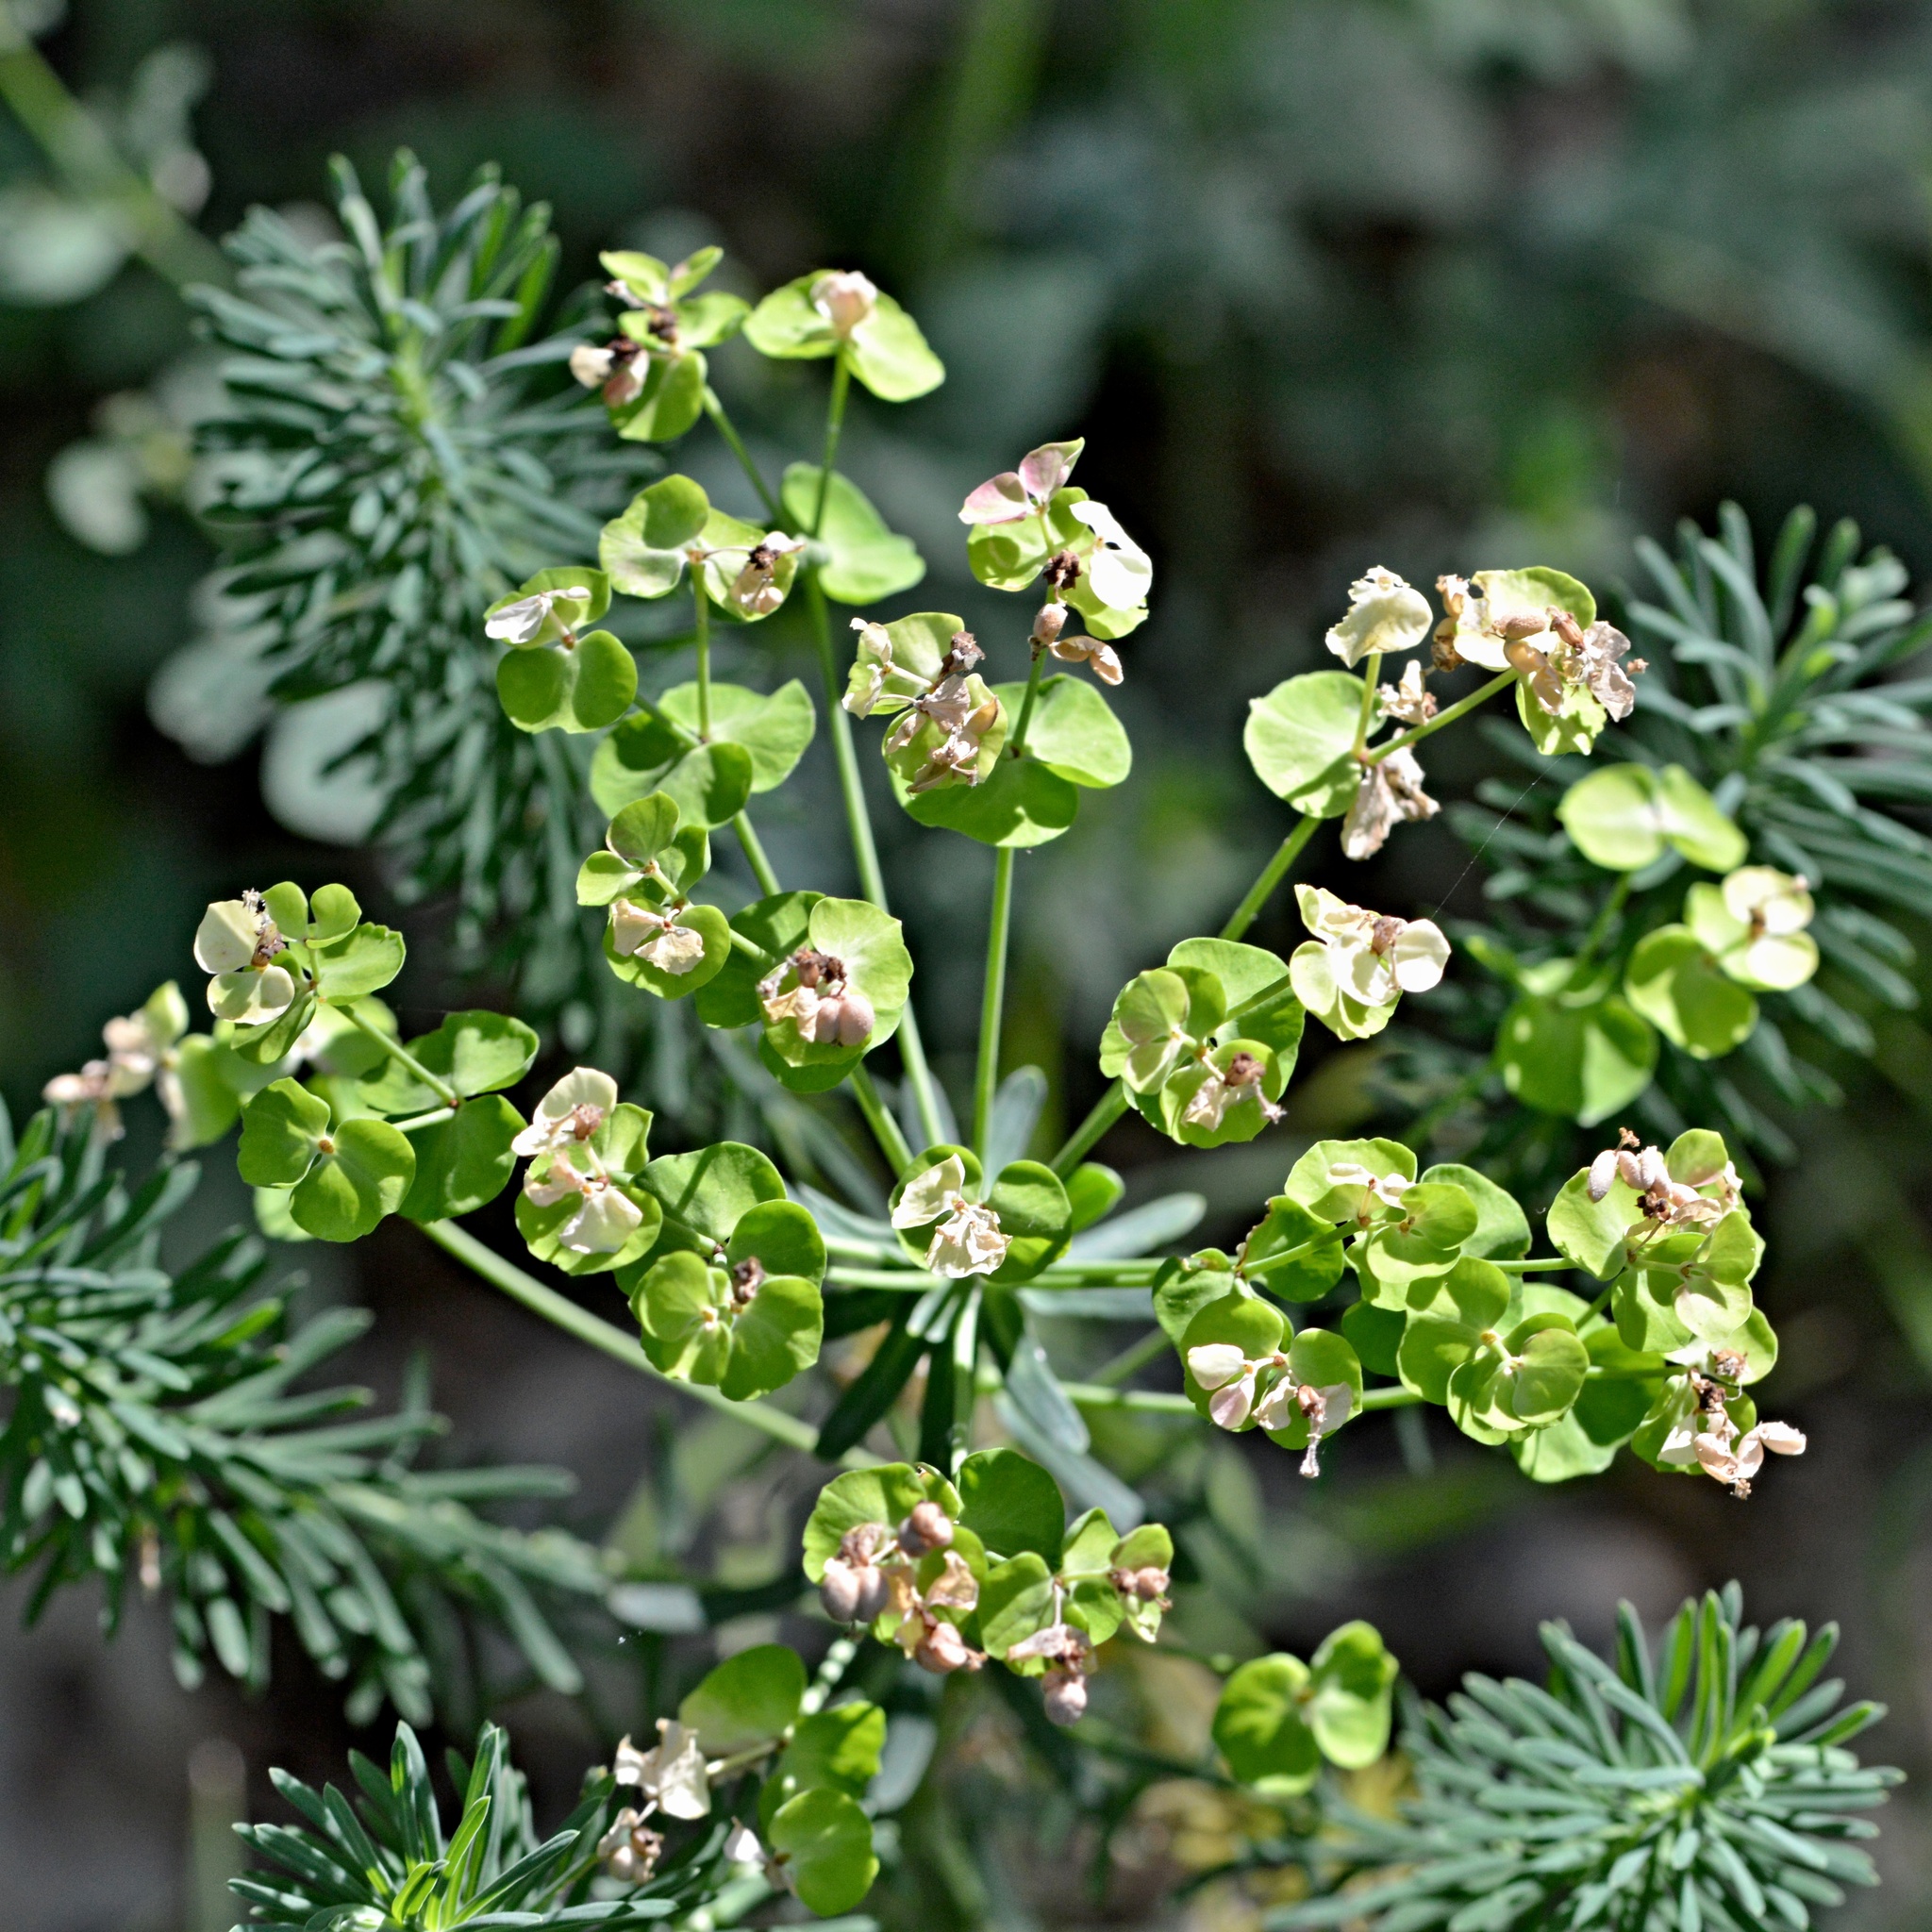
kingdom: Plantae
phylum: Tracheophyta
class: Magnoliopsida
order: Malpighiales
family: Euphorbiaceae
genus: Euphorbia
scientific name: Euphorbia cyparissias
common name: Cypress spurge
